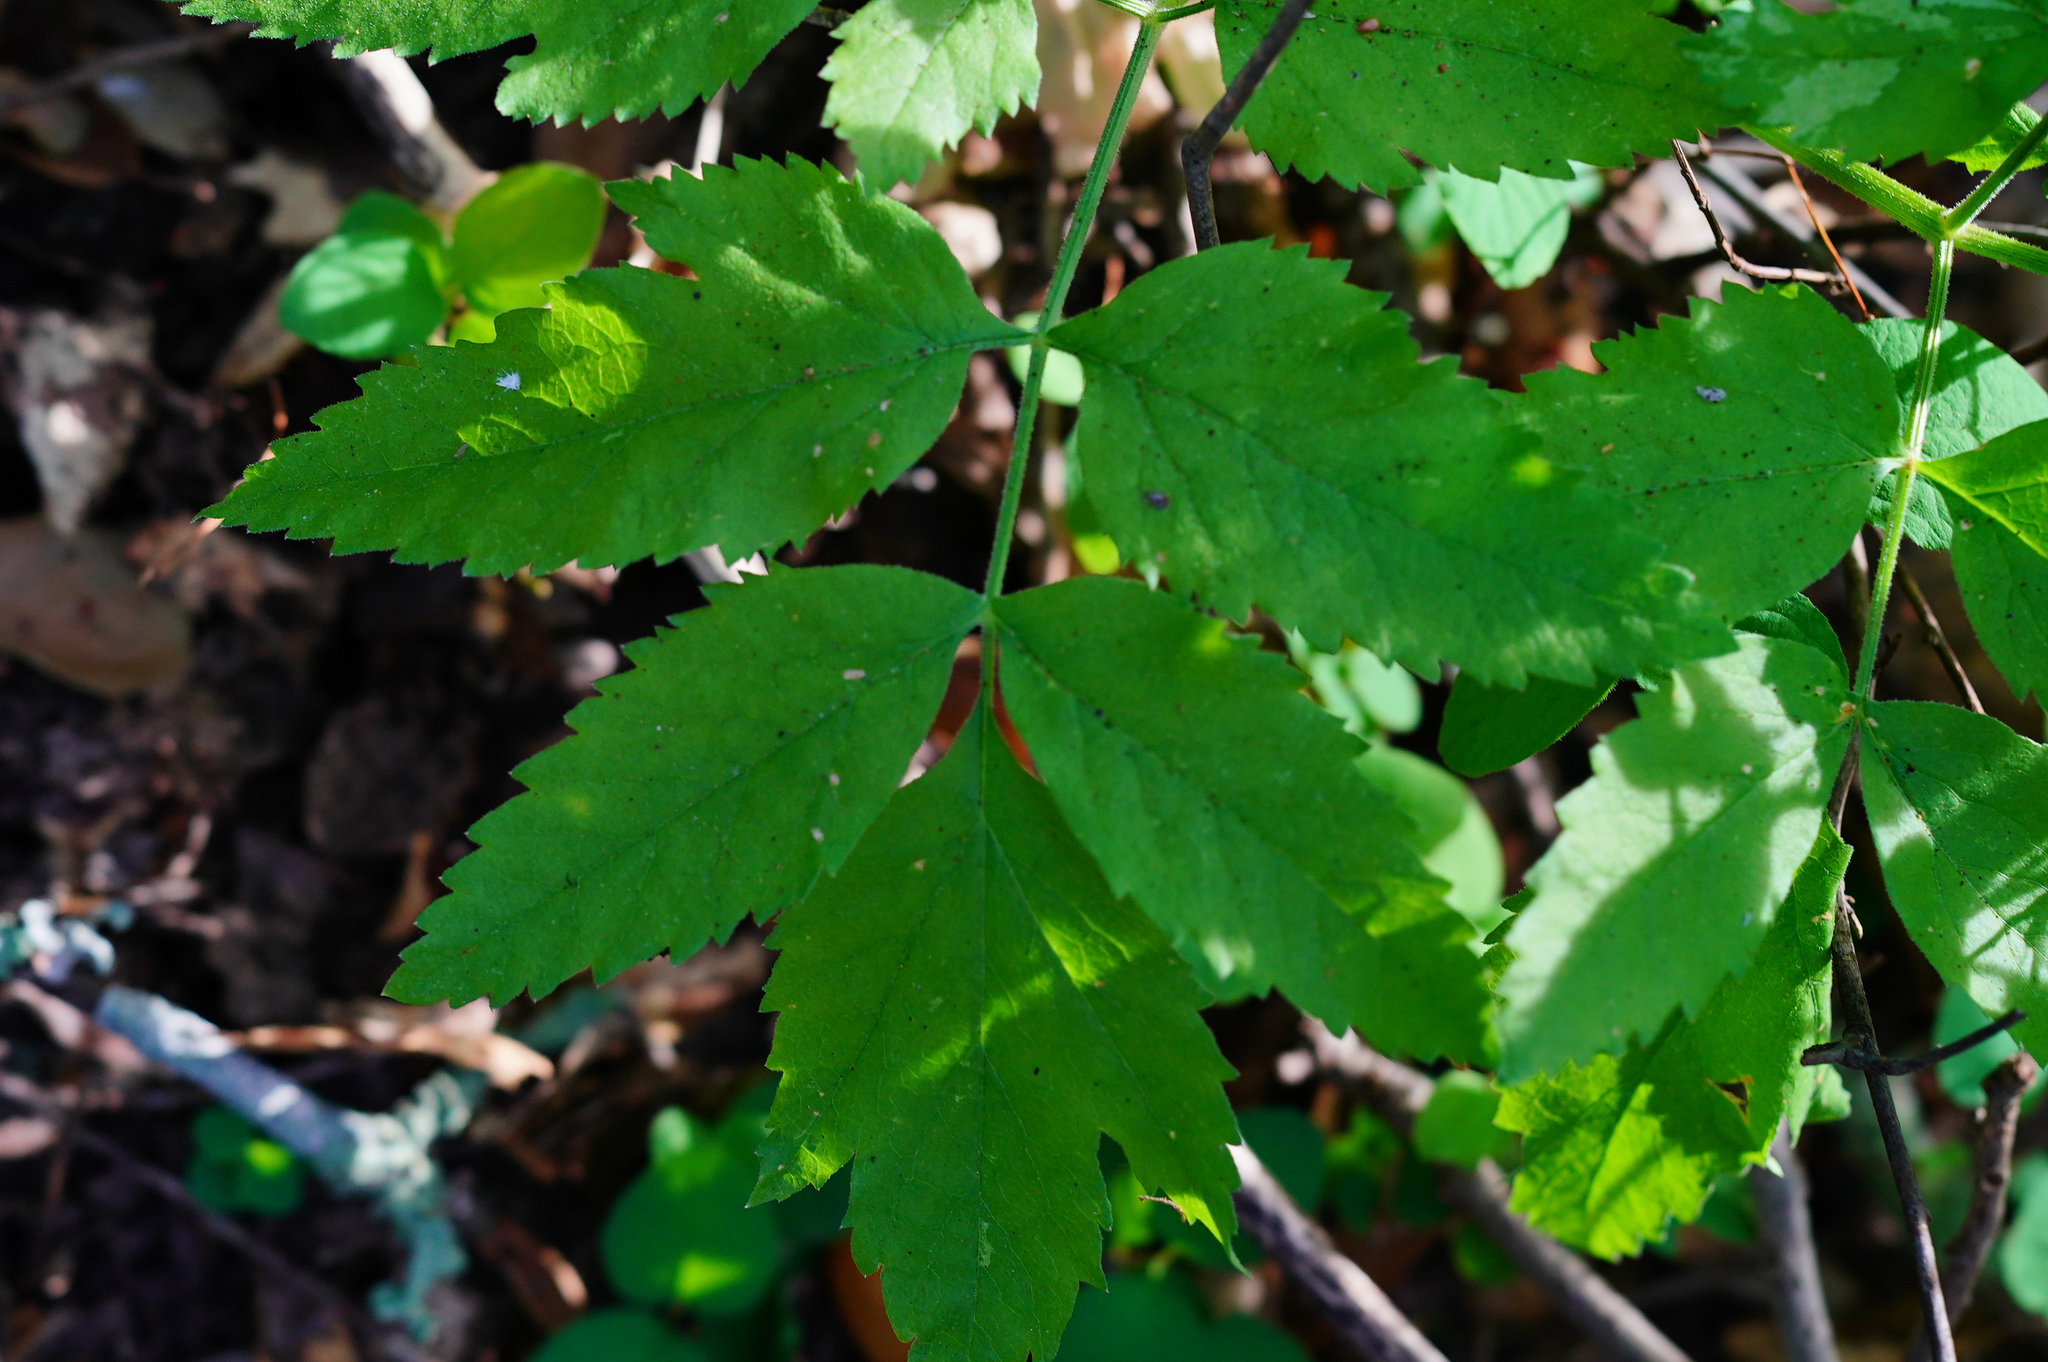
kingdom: Plantae
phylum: Tracheophyta
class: Magnoliopsida
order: Apiales
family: Apiaceae
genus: Angelica
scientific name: Angelica californica
